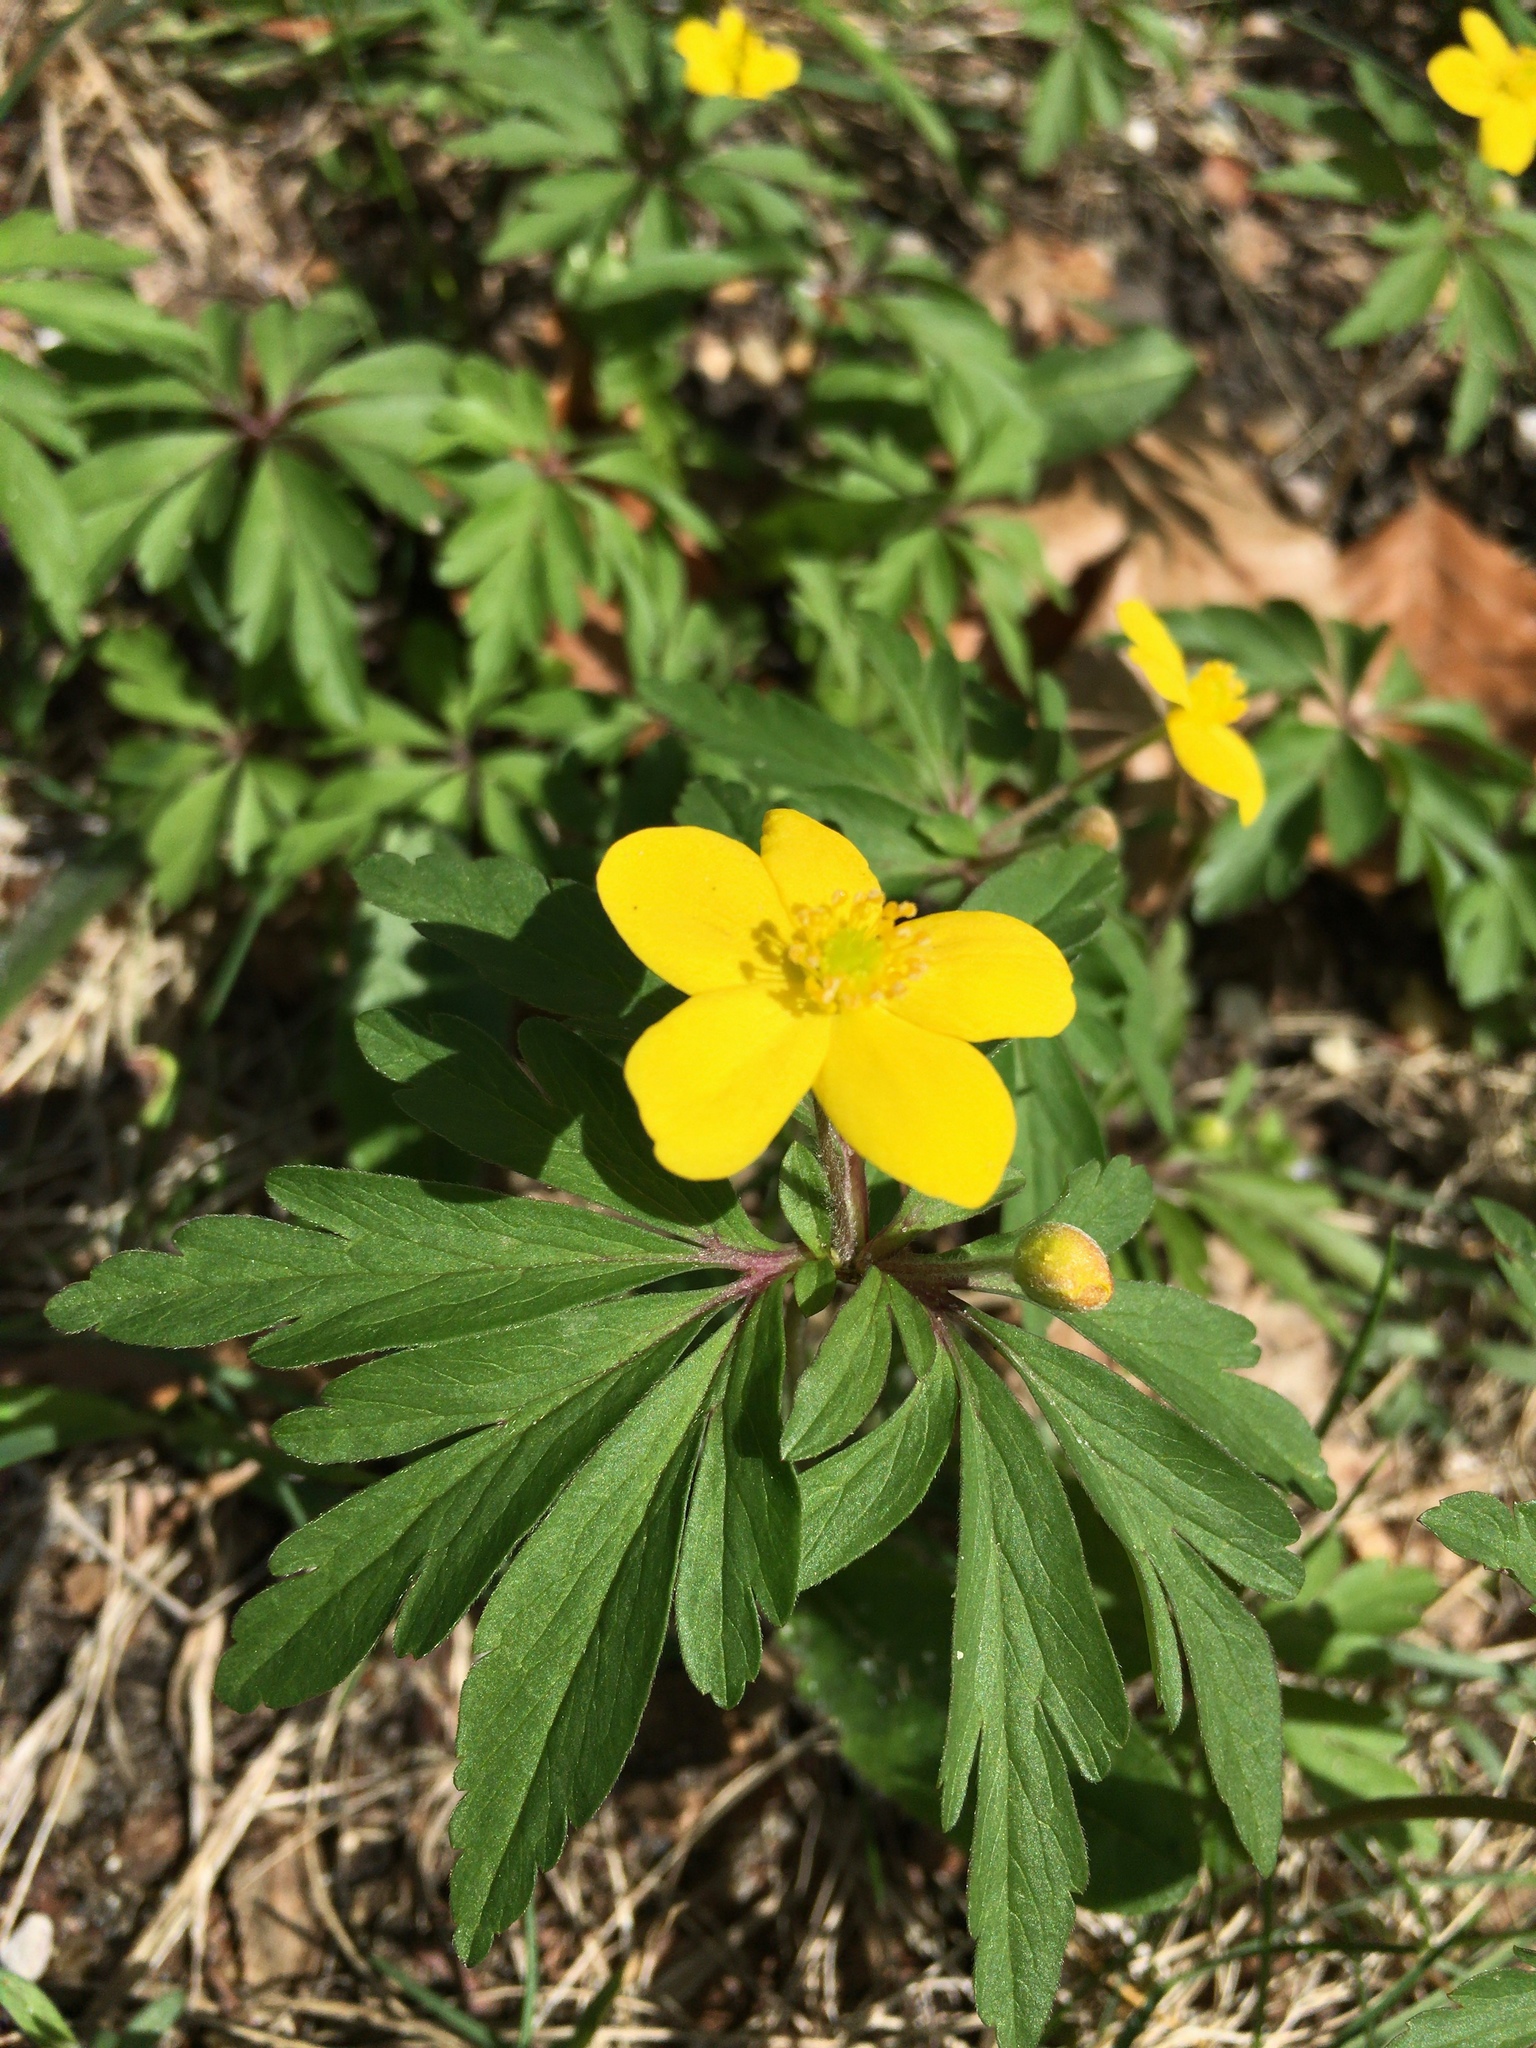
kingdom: Plantae
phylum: Tracheophyta
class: Magnoliopsida
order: Ranunculales
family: Ranunculaceae
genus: Anemone
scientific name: Anemone ranunculoides
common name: Yellow anemone
